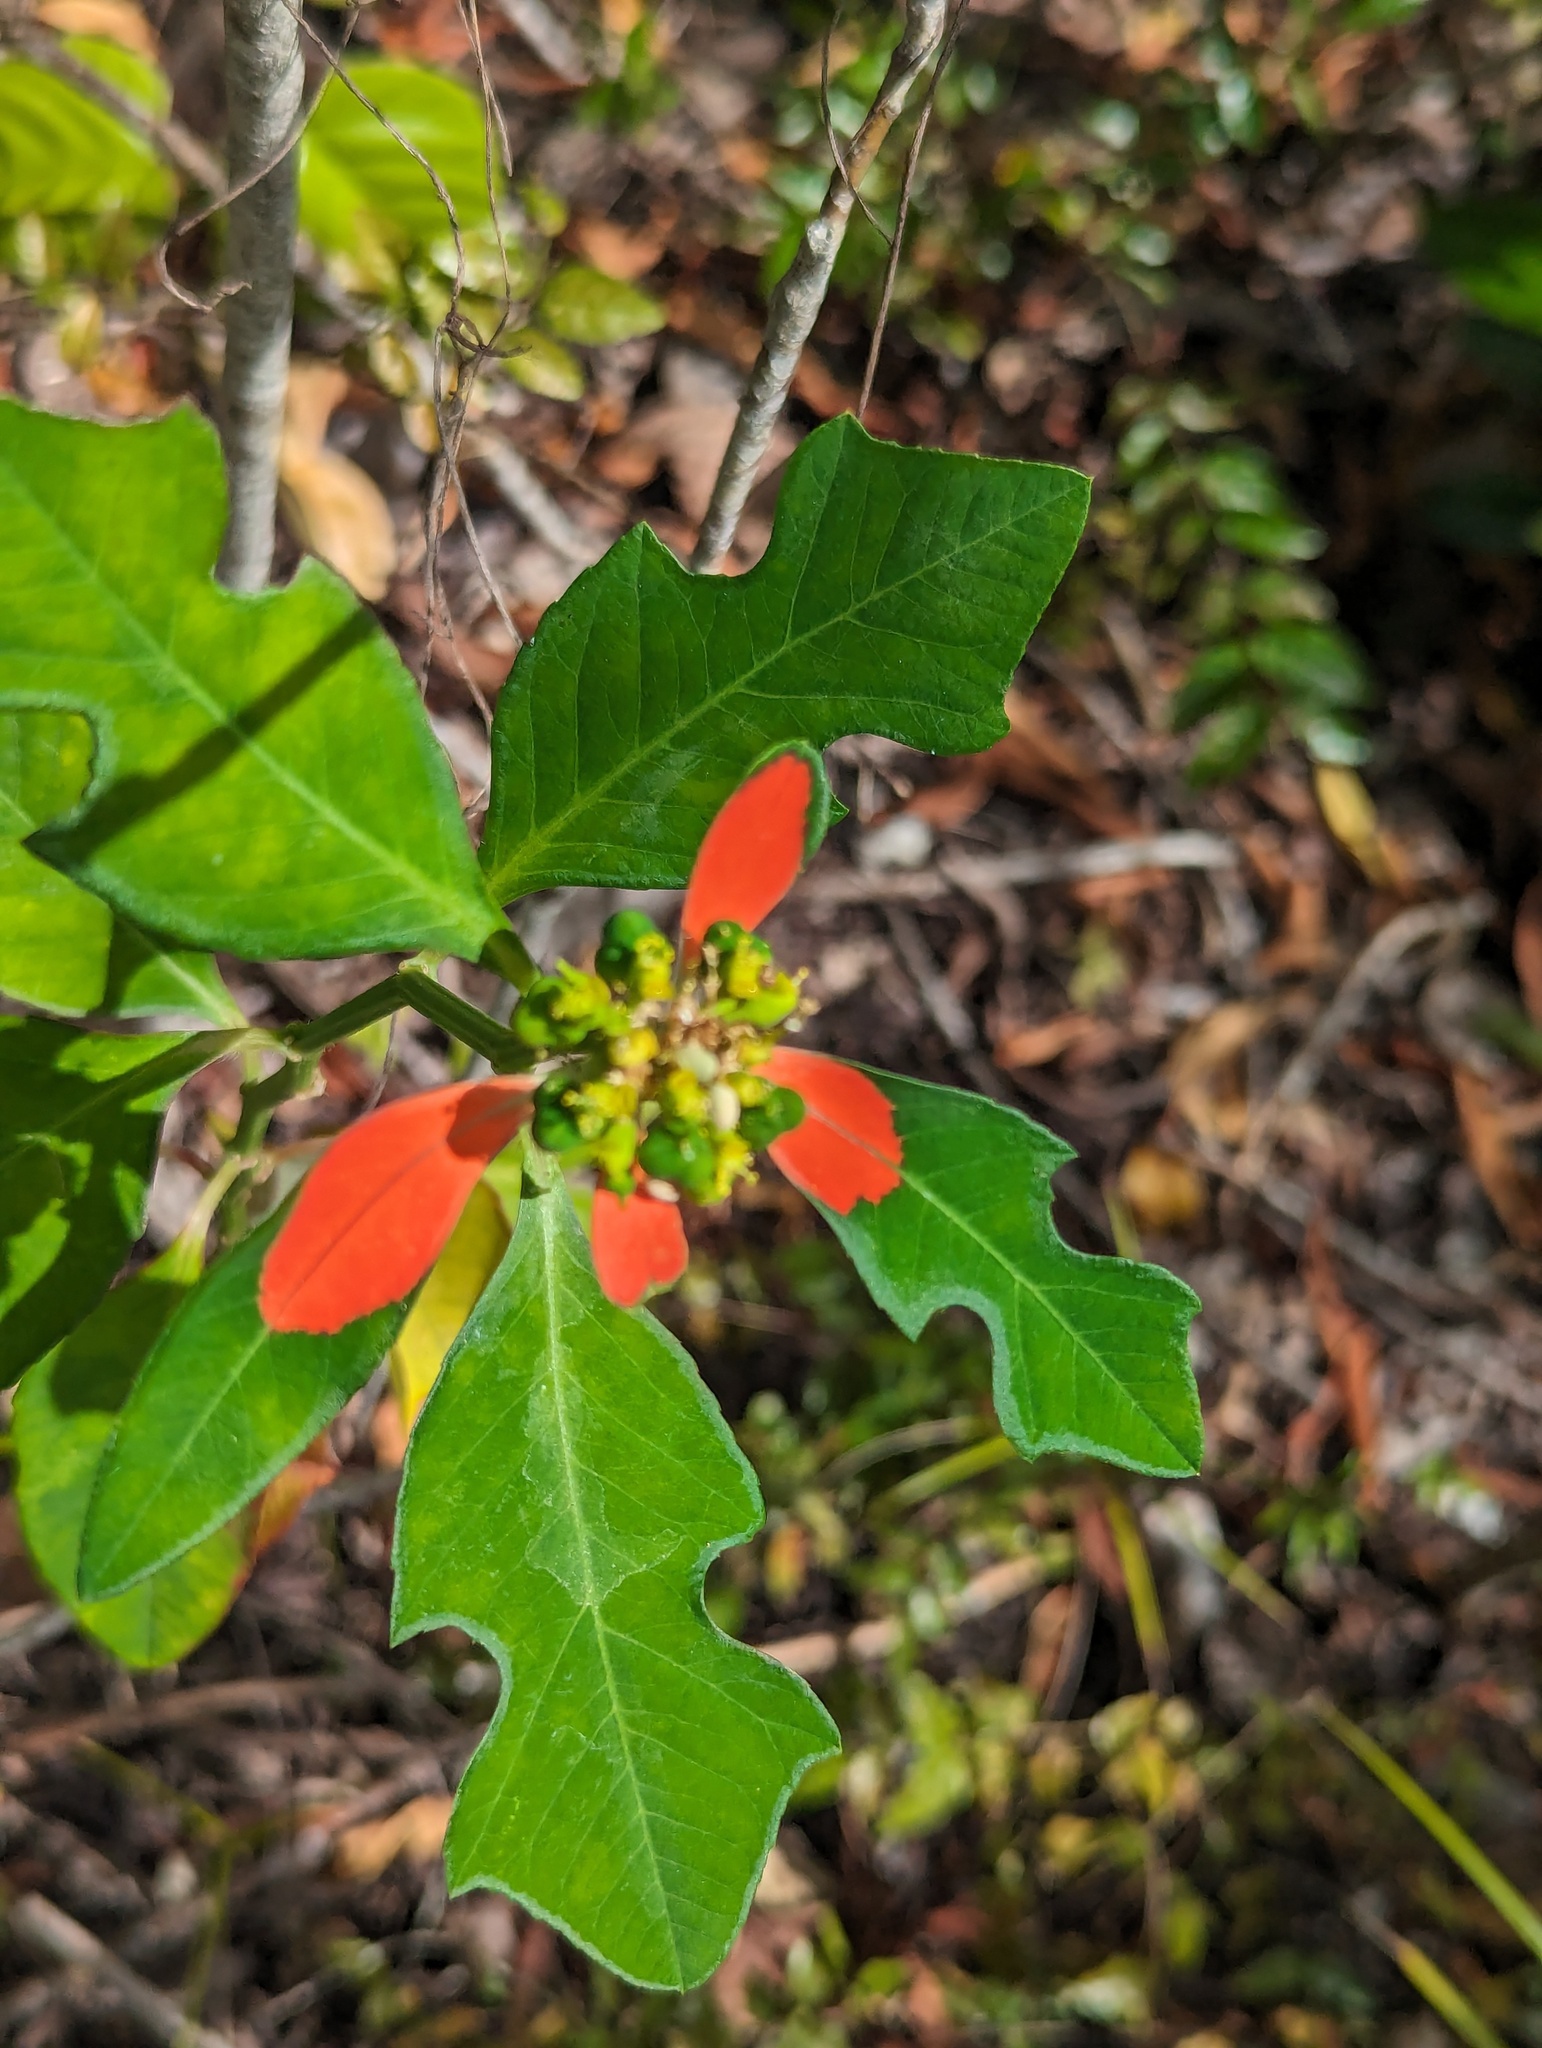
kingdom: Plantae
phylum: Tracheophyta
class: Magnoliopsida
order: Malpighiales
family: Euphorbiaceae
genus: Euphorbia
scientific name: Euphorbia heterophylla
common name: Mexican fireplant
